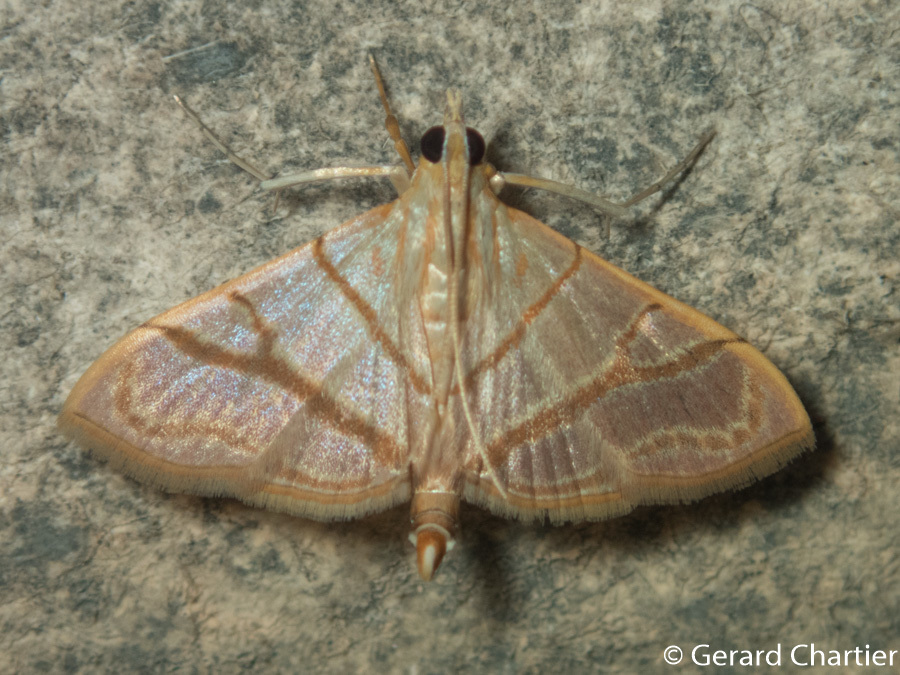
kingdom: Animalia
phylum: Arthropoda
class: Insecta
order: Lepidoptera
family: Crambidae
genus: Pagyda
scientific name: Pagyda salvalis
